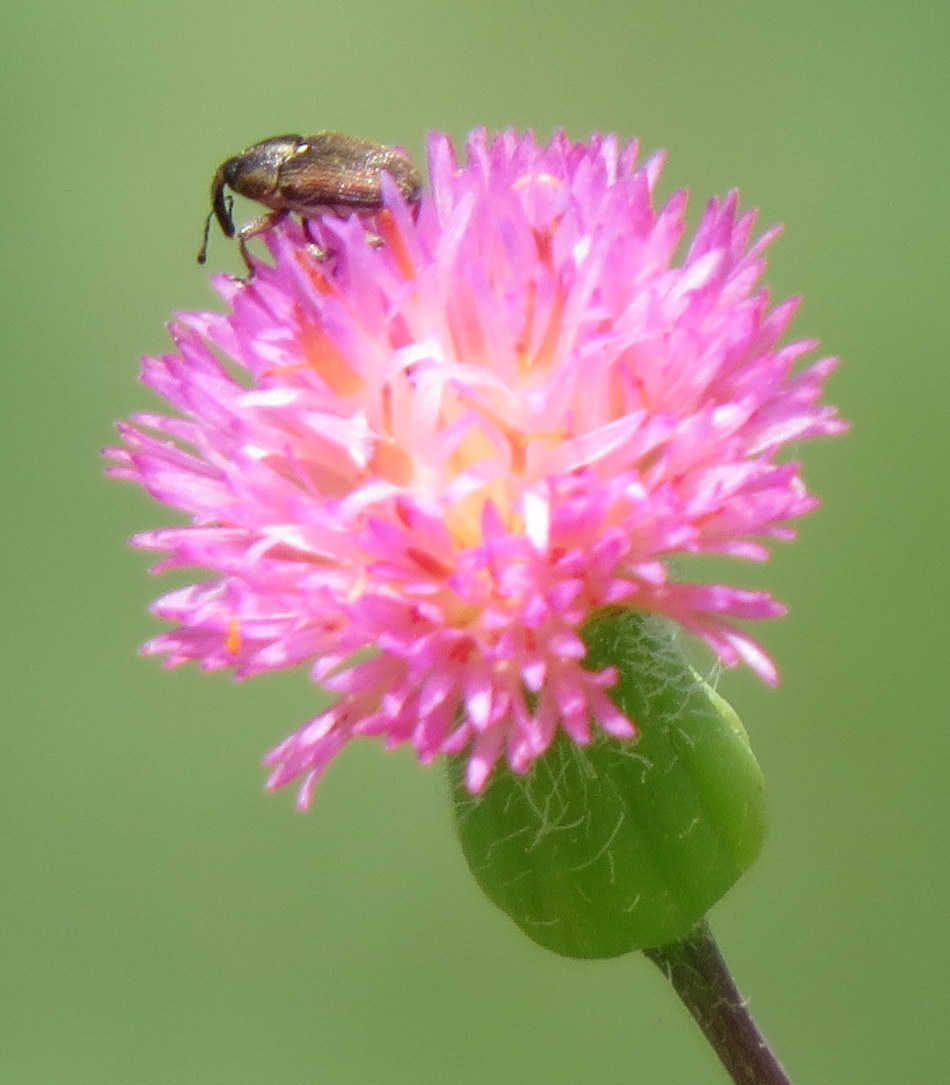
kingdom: Plantae
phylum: Tracheophyta
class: Magnoliopsida
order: Asterales
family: Asteraceae
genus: Emilia
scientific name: Emilia sonchifolia
